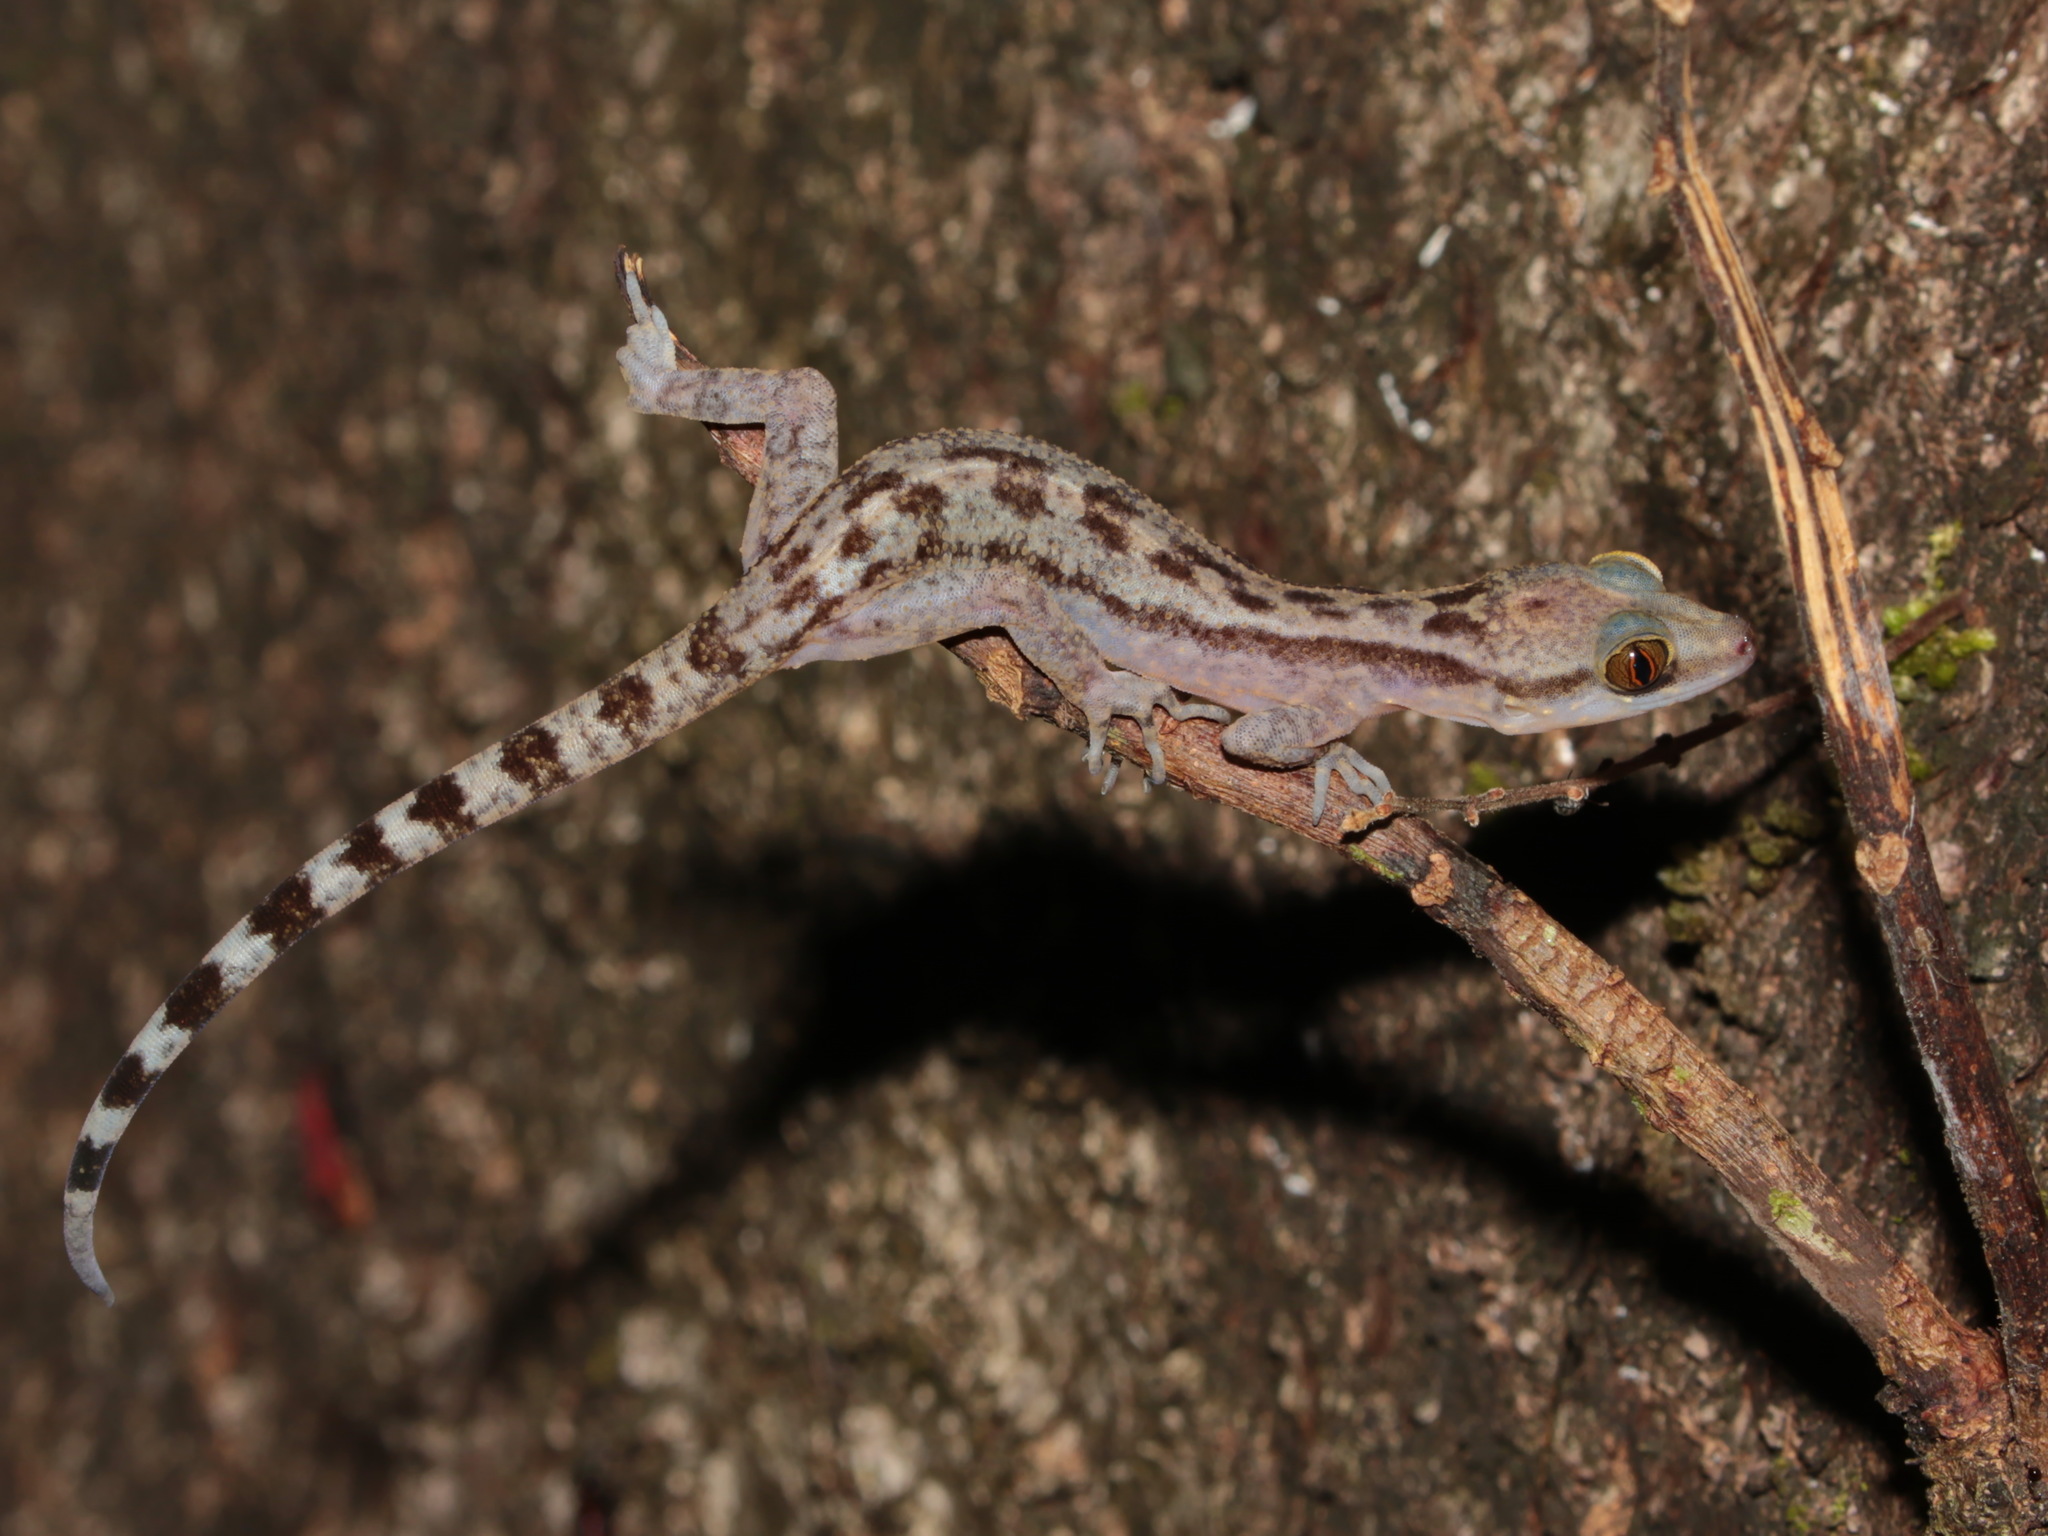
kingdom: Animalia
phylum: Chordata
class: Squamata
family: Gekkonidae
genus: Cyrtodactylus
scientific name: Cyrtodactylus quadrivirgatus
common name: Four-striped forest gecko
